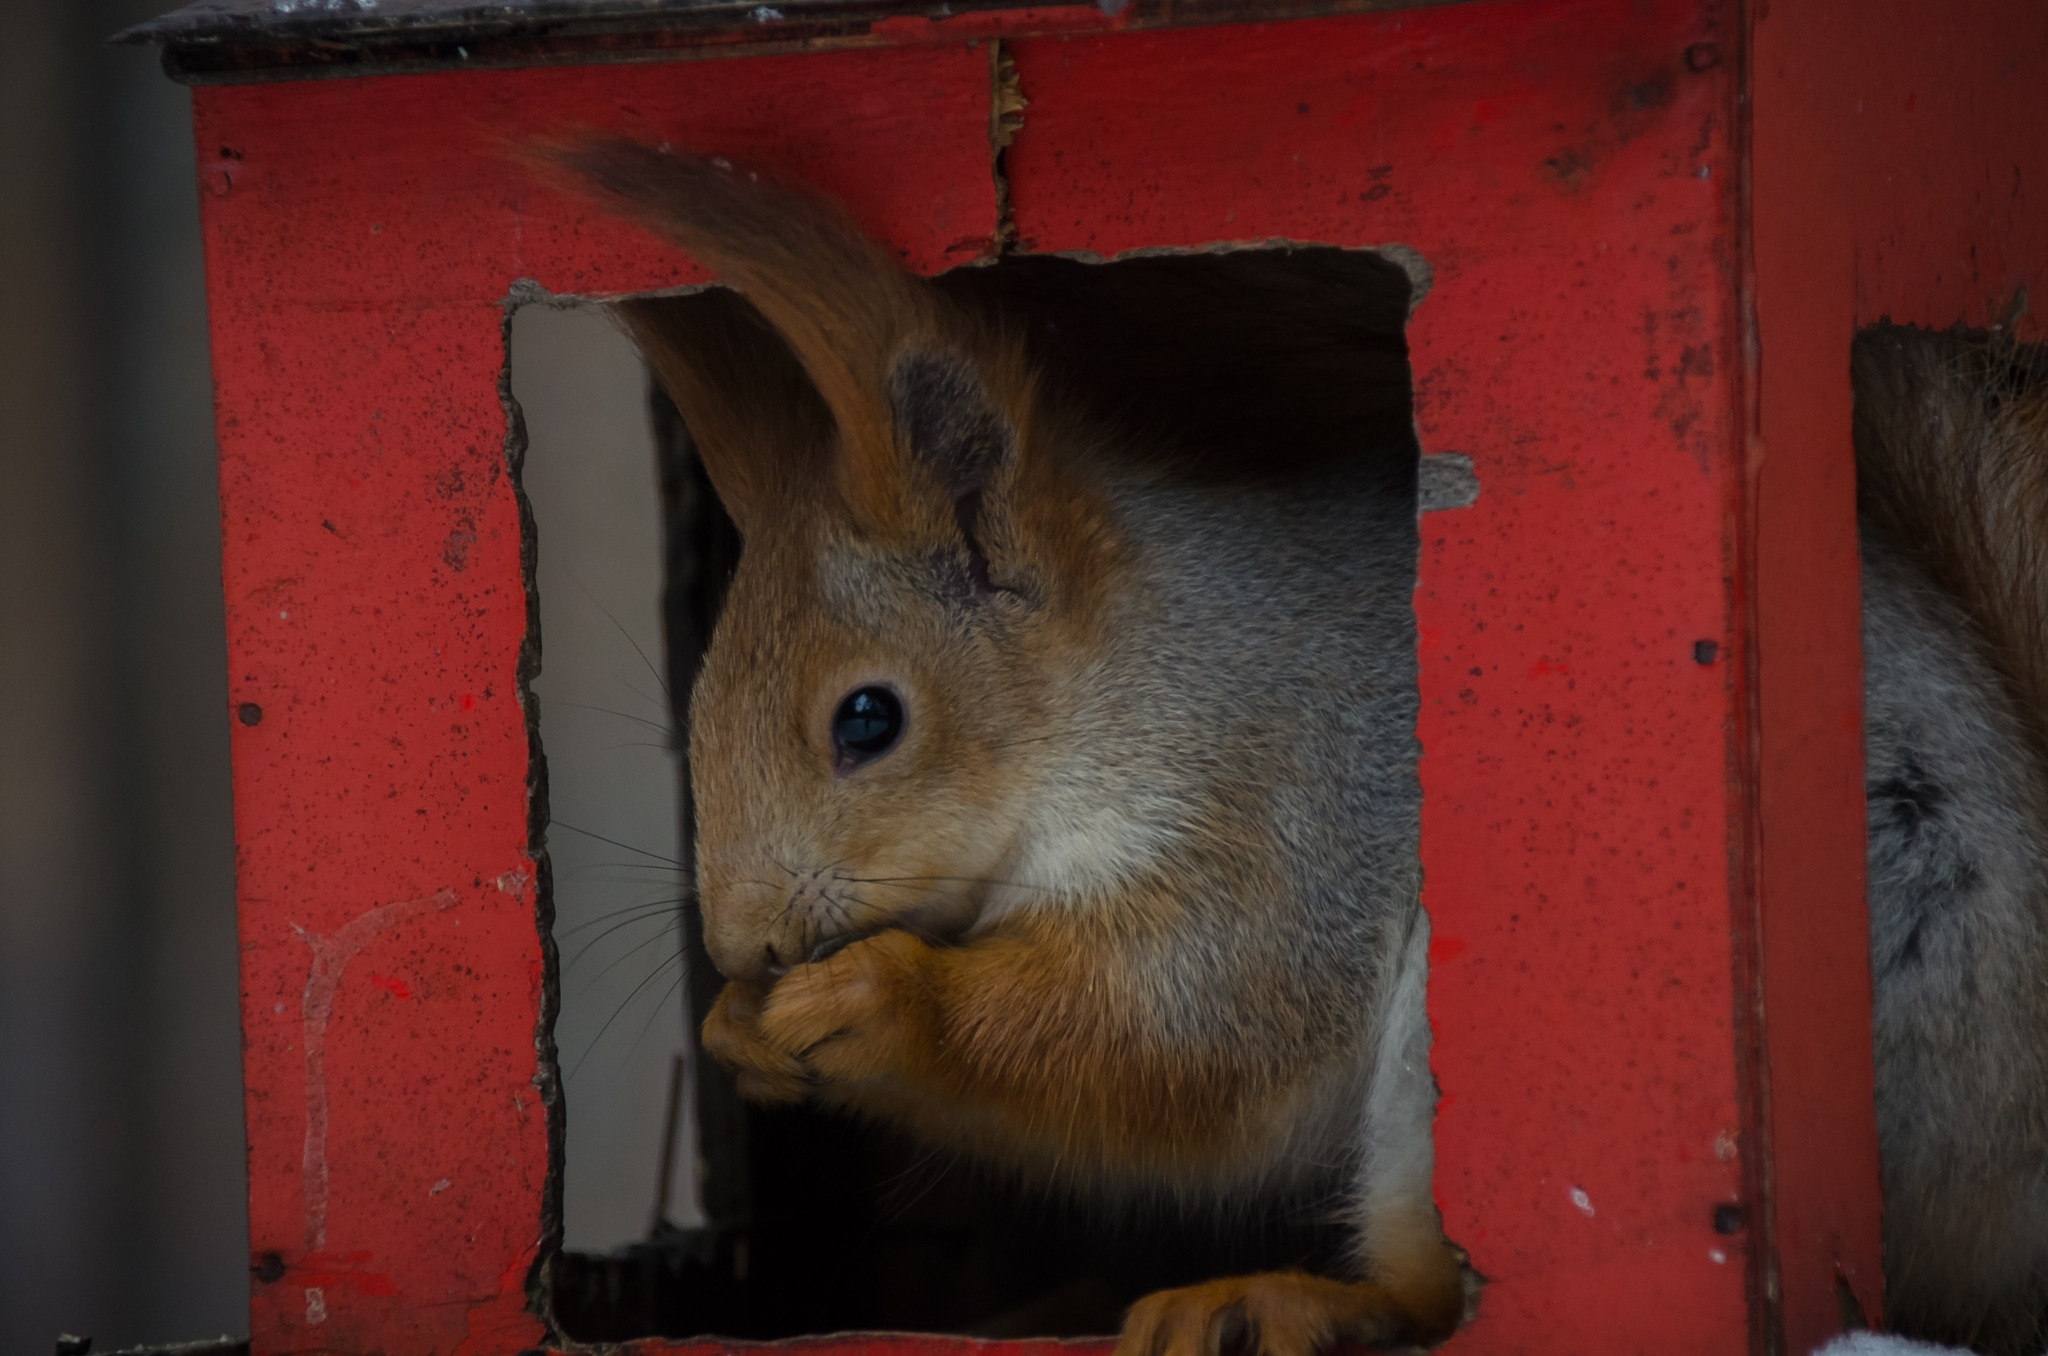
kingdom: Animalia
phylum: Chordata
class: Mammalia
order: Rodentia
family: Sciuridae
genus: Sciurus
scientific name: Sciurus vulgaris
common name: Eurasian red squirrel
